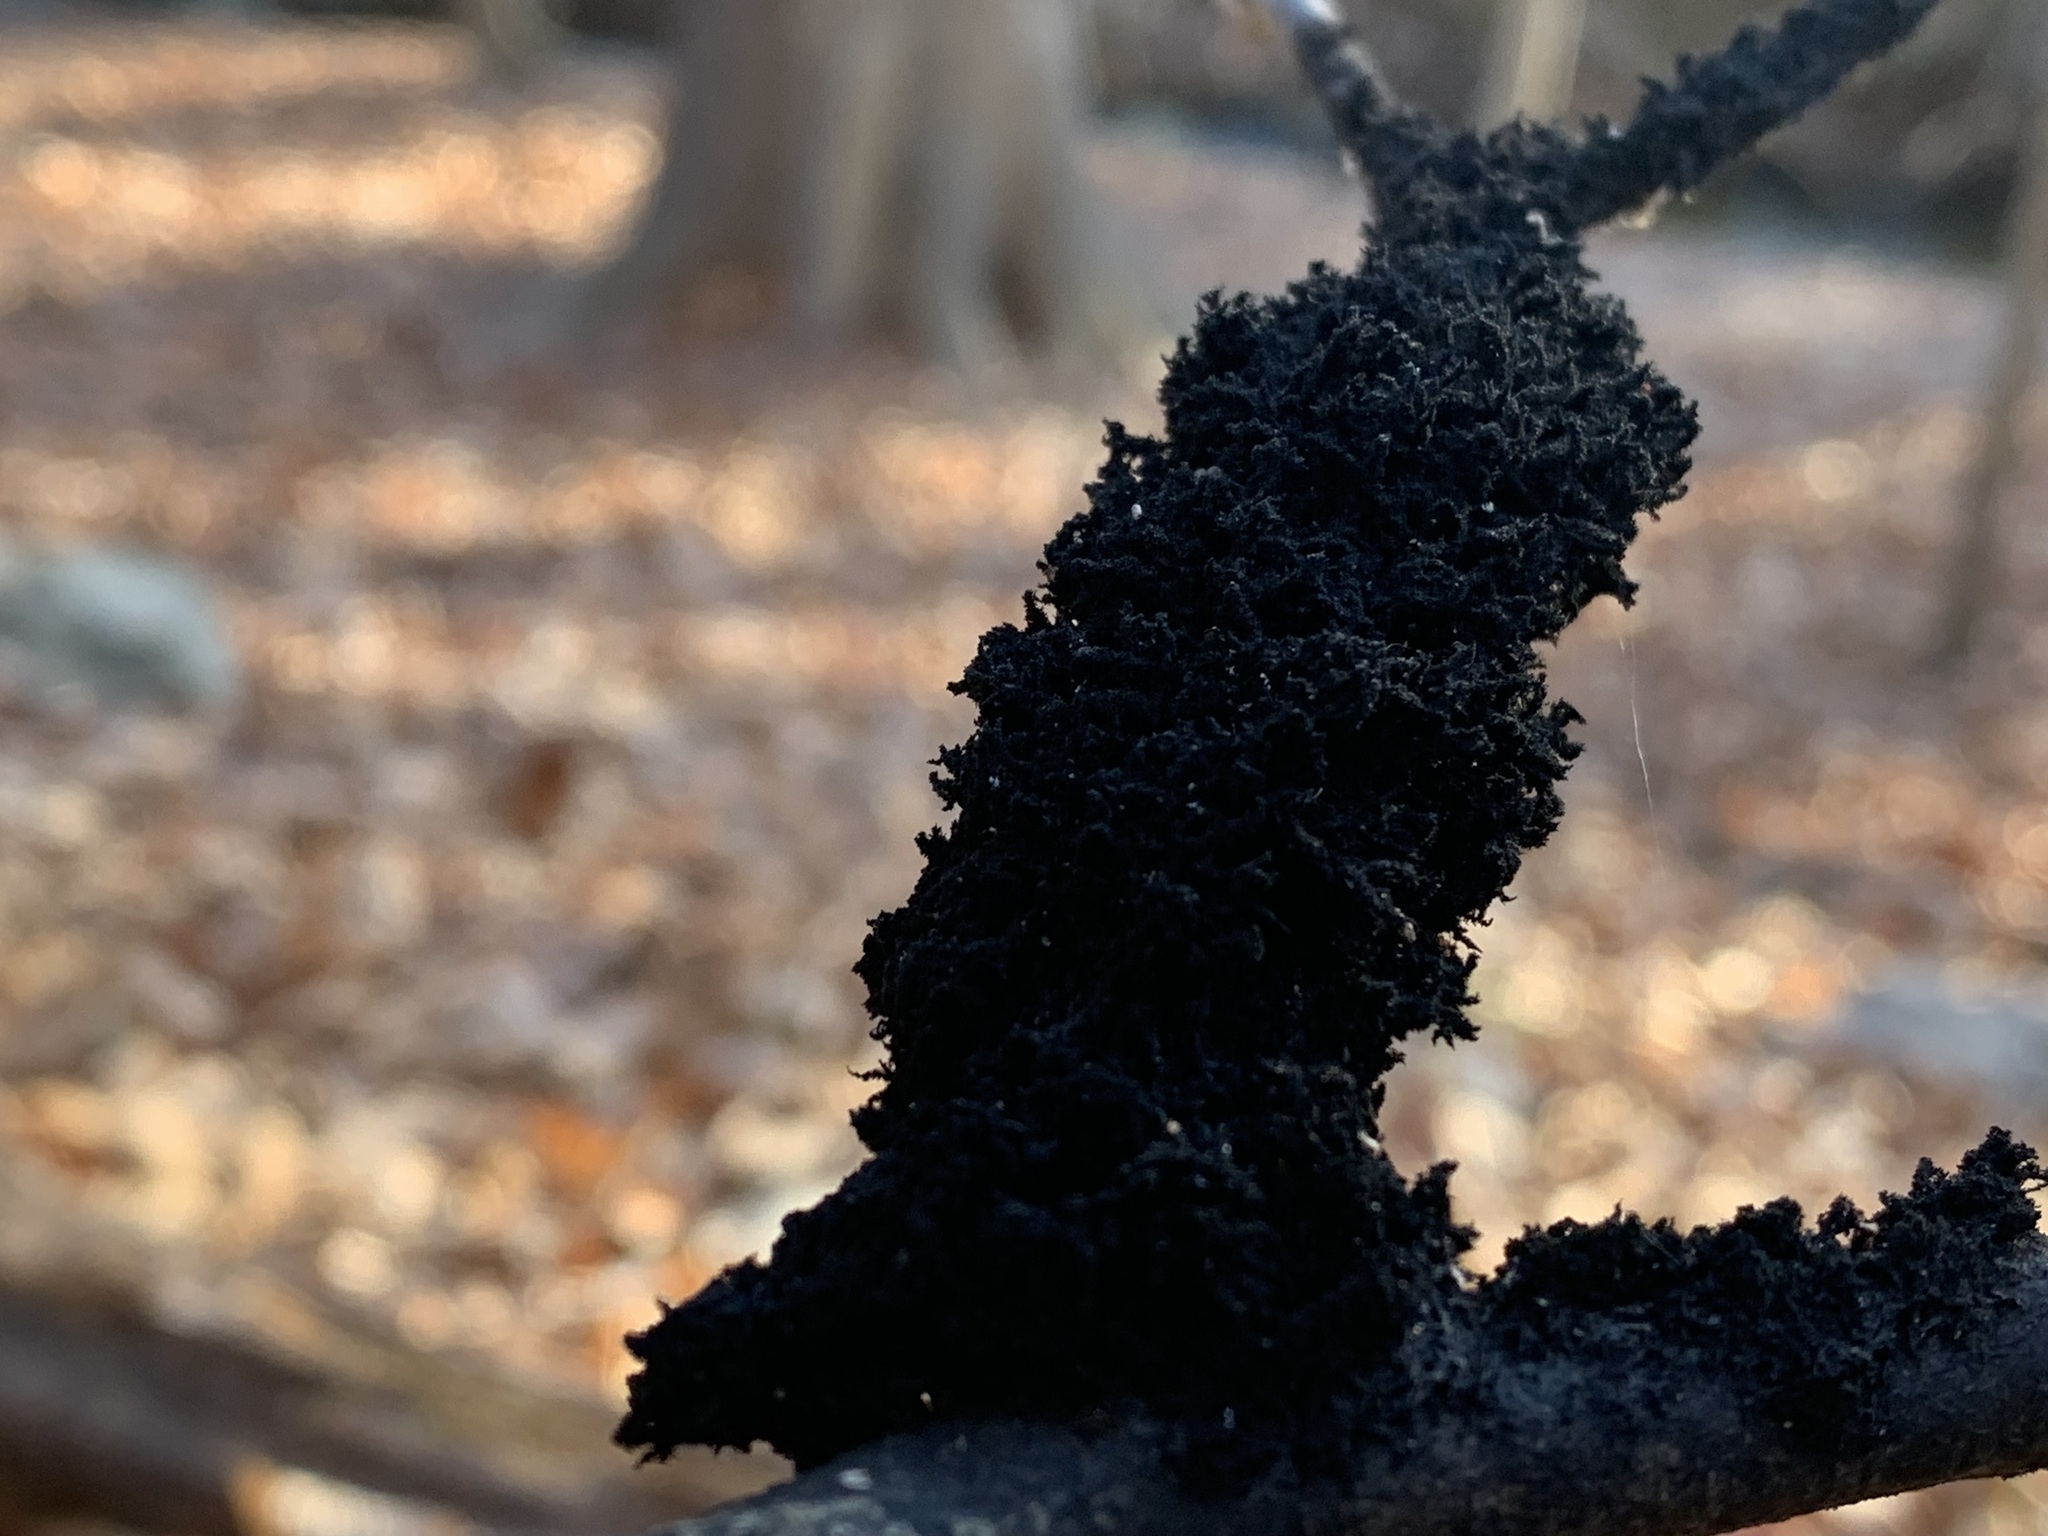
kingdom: Fungi
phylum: Ascomycota
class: Dothideomycetes
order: Capnodiales
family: Capnodiaceae
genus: Scorias
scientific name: Scorias spongiosa
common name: Black sooty mold
